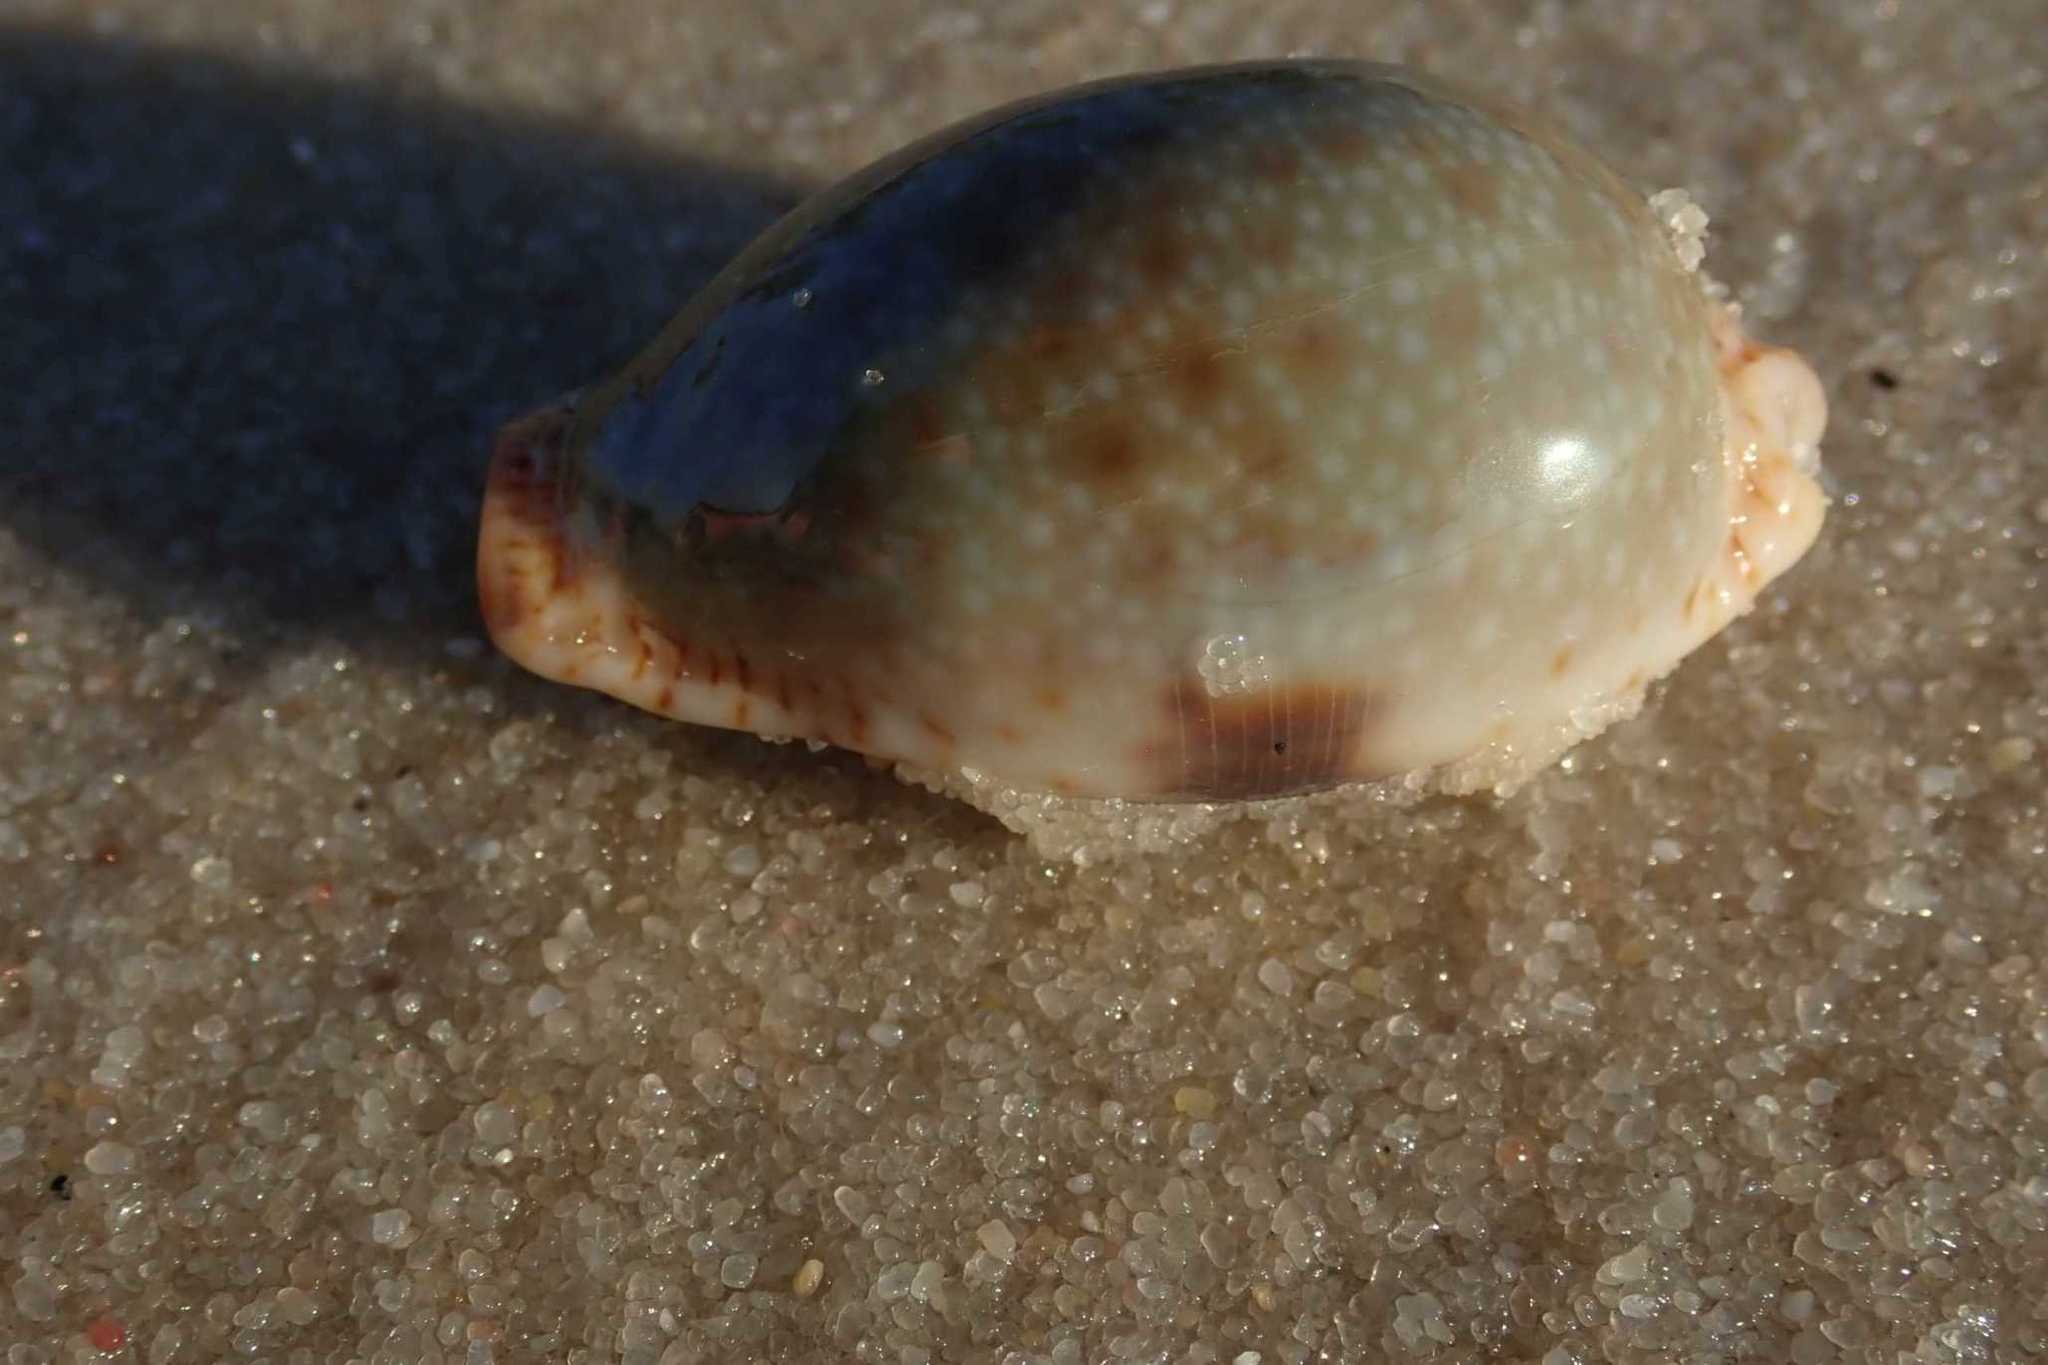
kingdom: Animalia
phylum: Mollusca
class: Gastropoda
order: Littorinimorpha
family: Cypraeidae
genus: Naria
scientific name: Naria erosa
